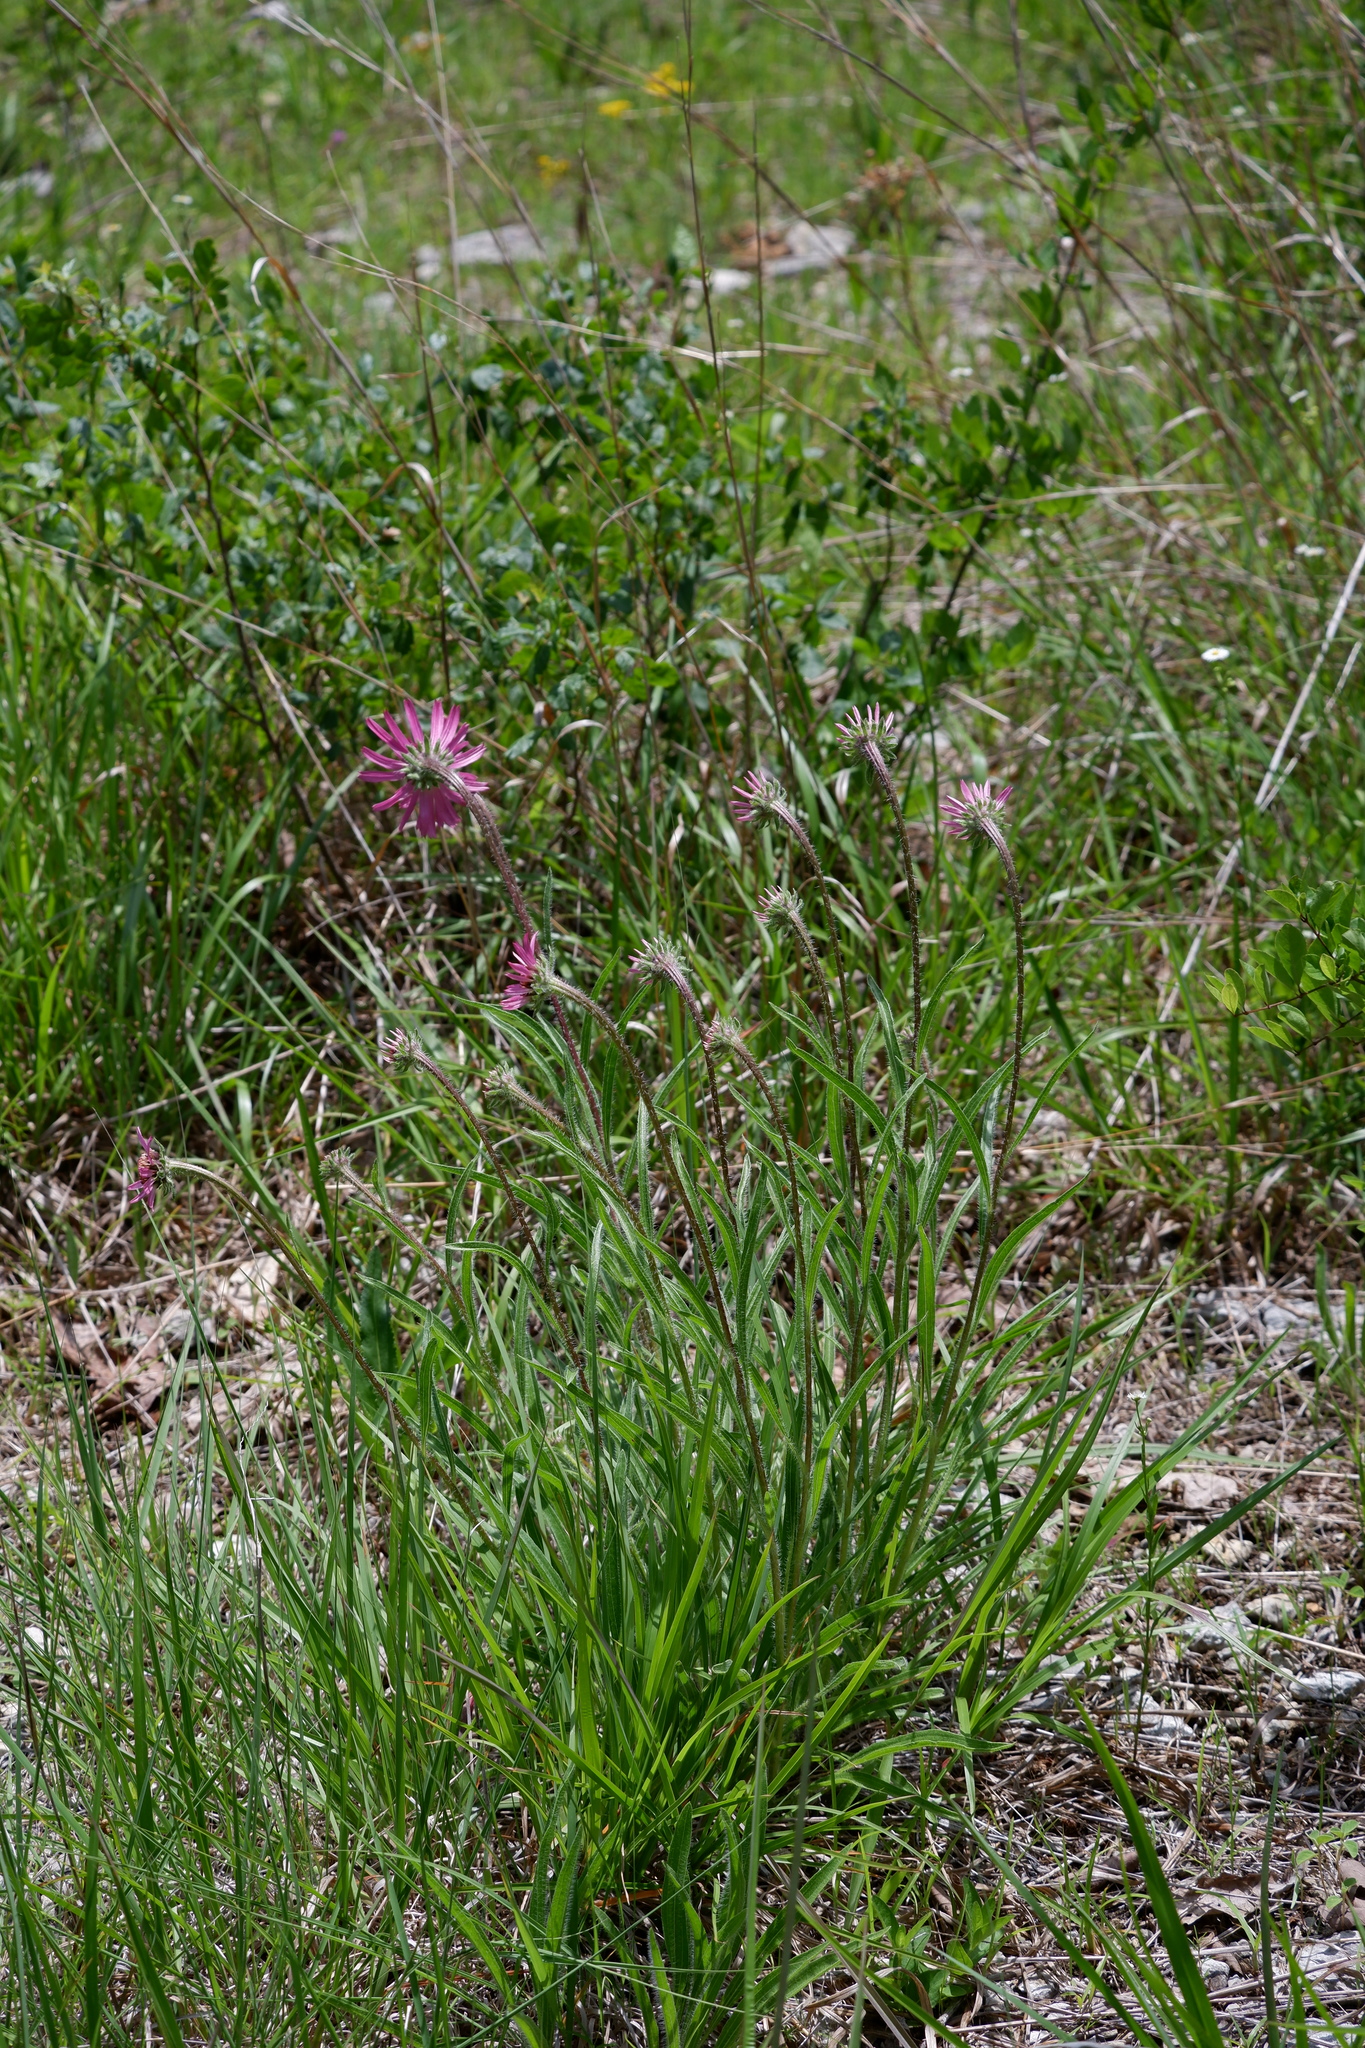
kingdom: Plantae
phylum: Tracheophyta
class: Magnoliopsida
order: Asterales
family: Asteraceae
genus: Echinacea
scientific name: Echinacea tennesseensis
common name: Tennessee purple-coneflower
